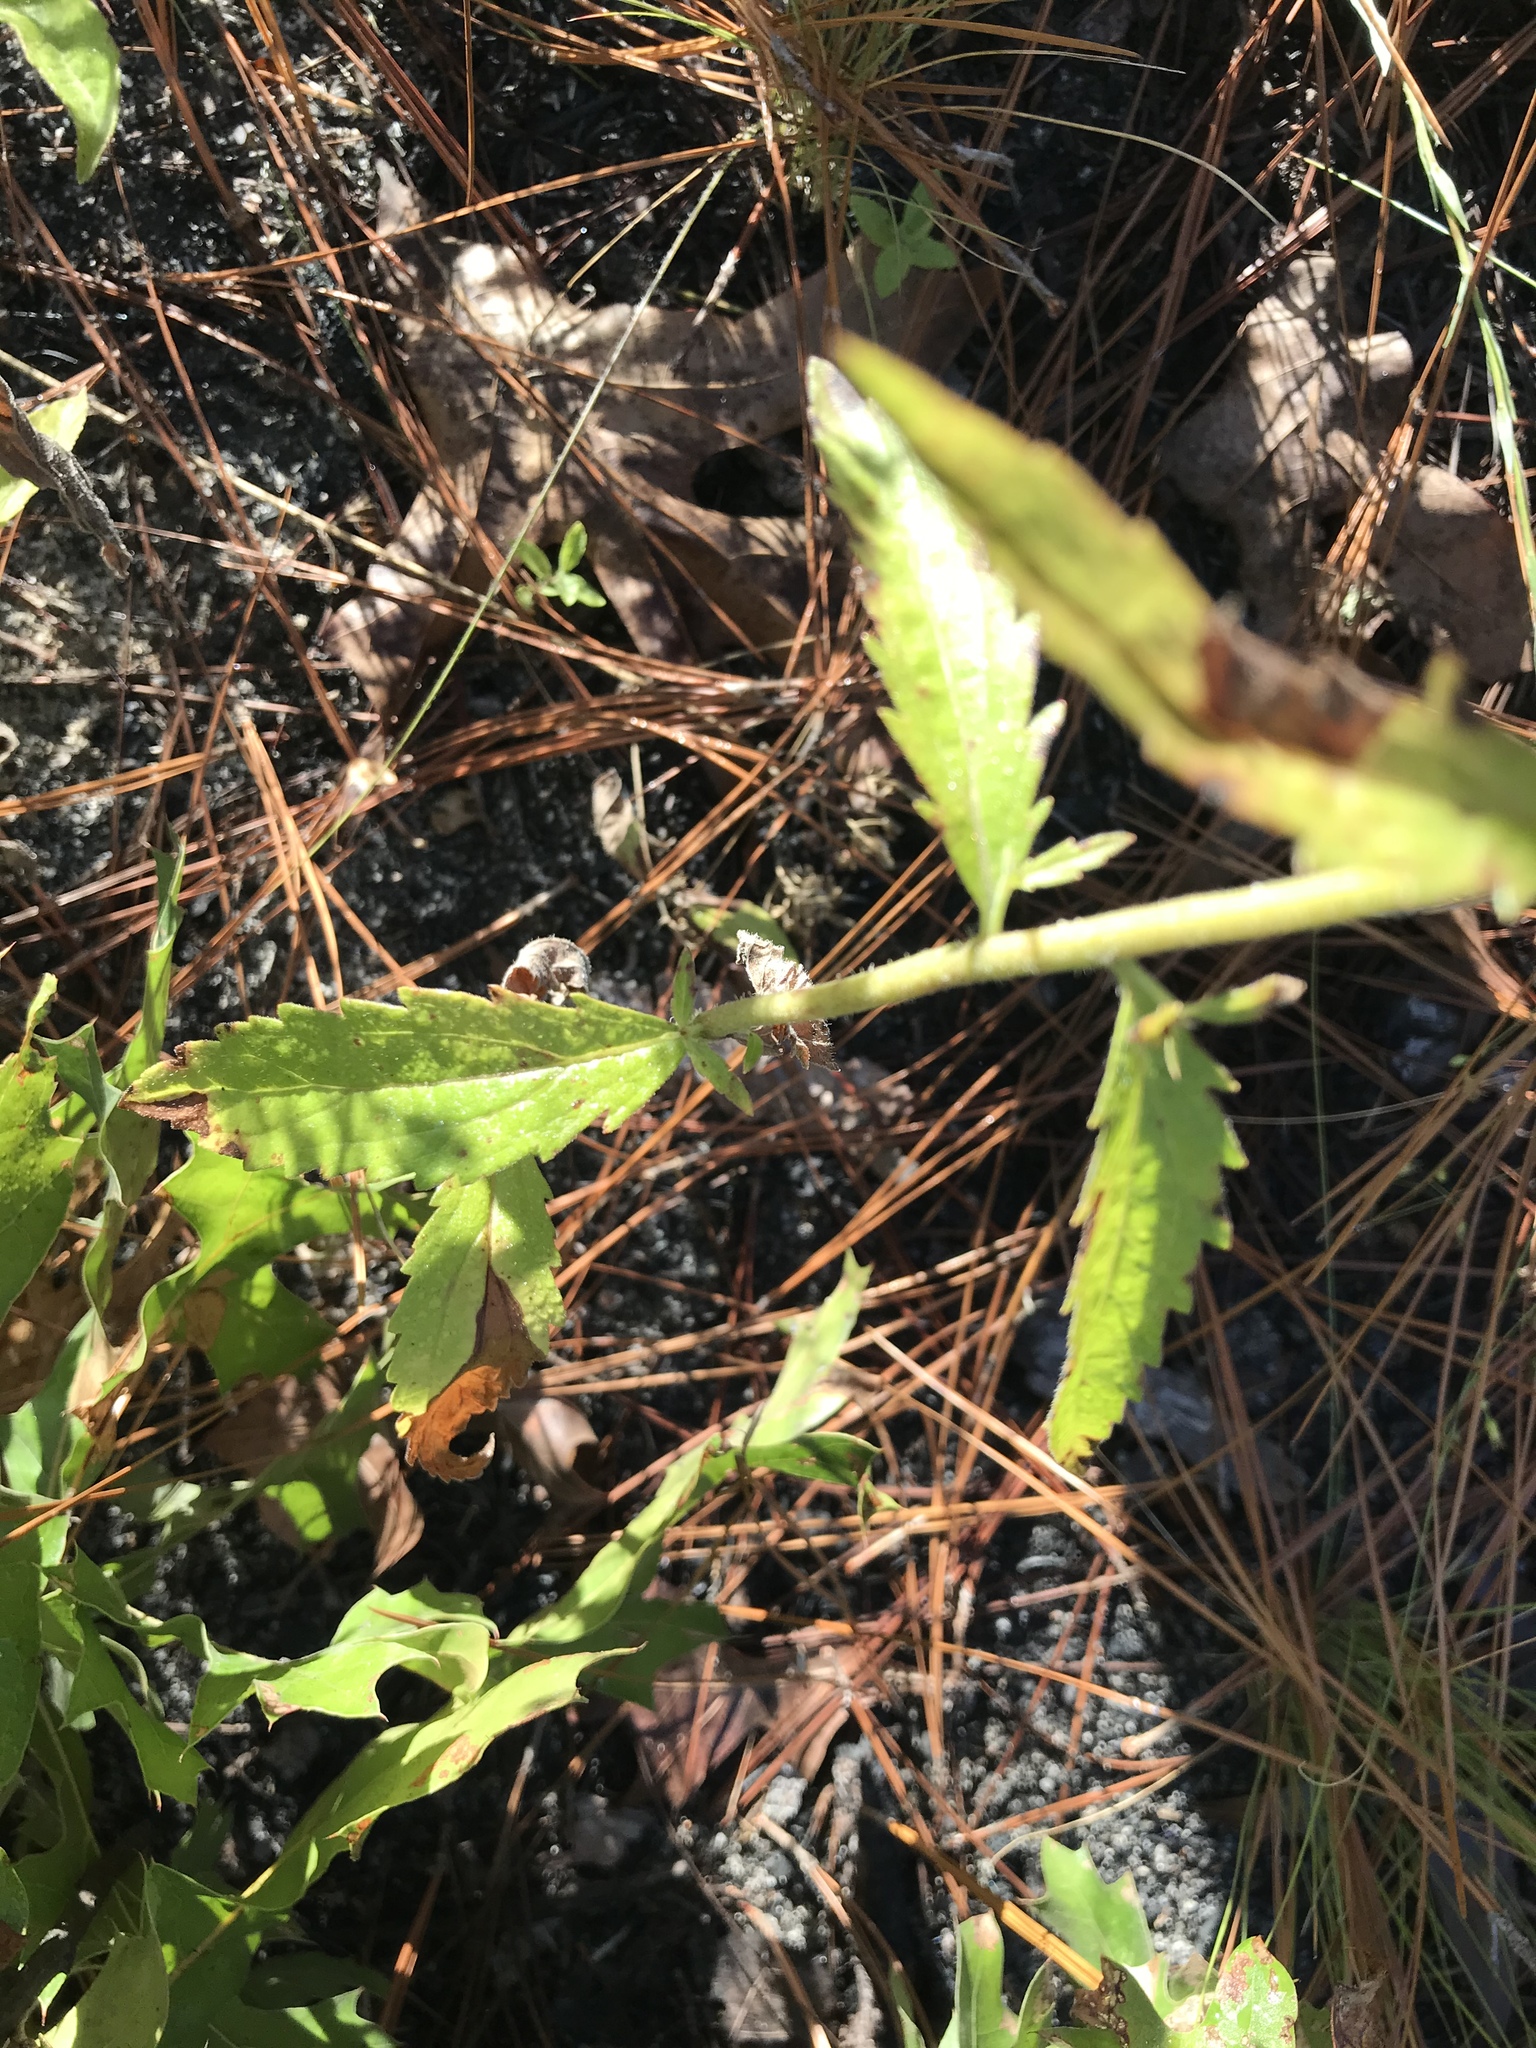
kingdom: Plantae
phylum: Tracheophyta
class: Magnoliopsida
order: Asterales
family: Asteraceae
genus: Eupatorium
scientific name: Eupatorium album
